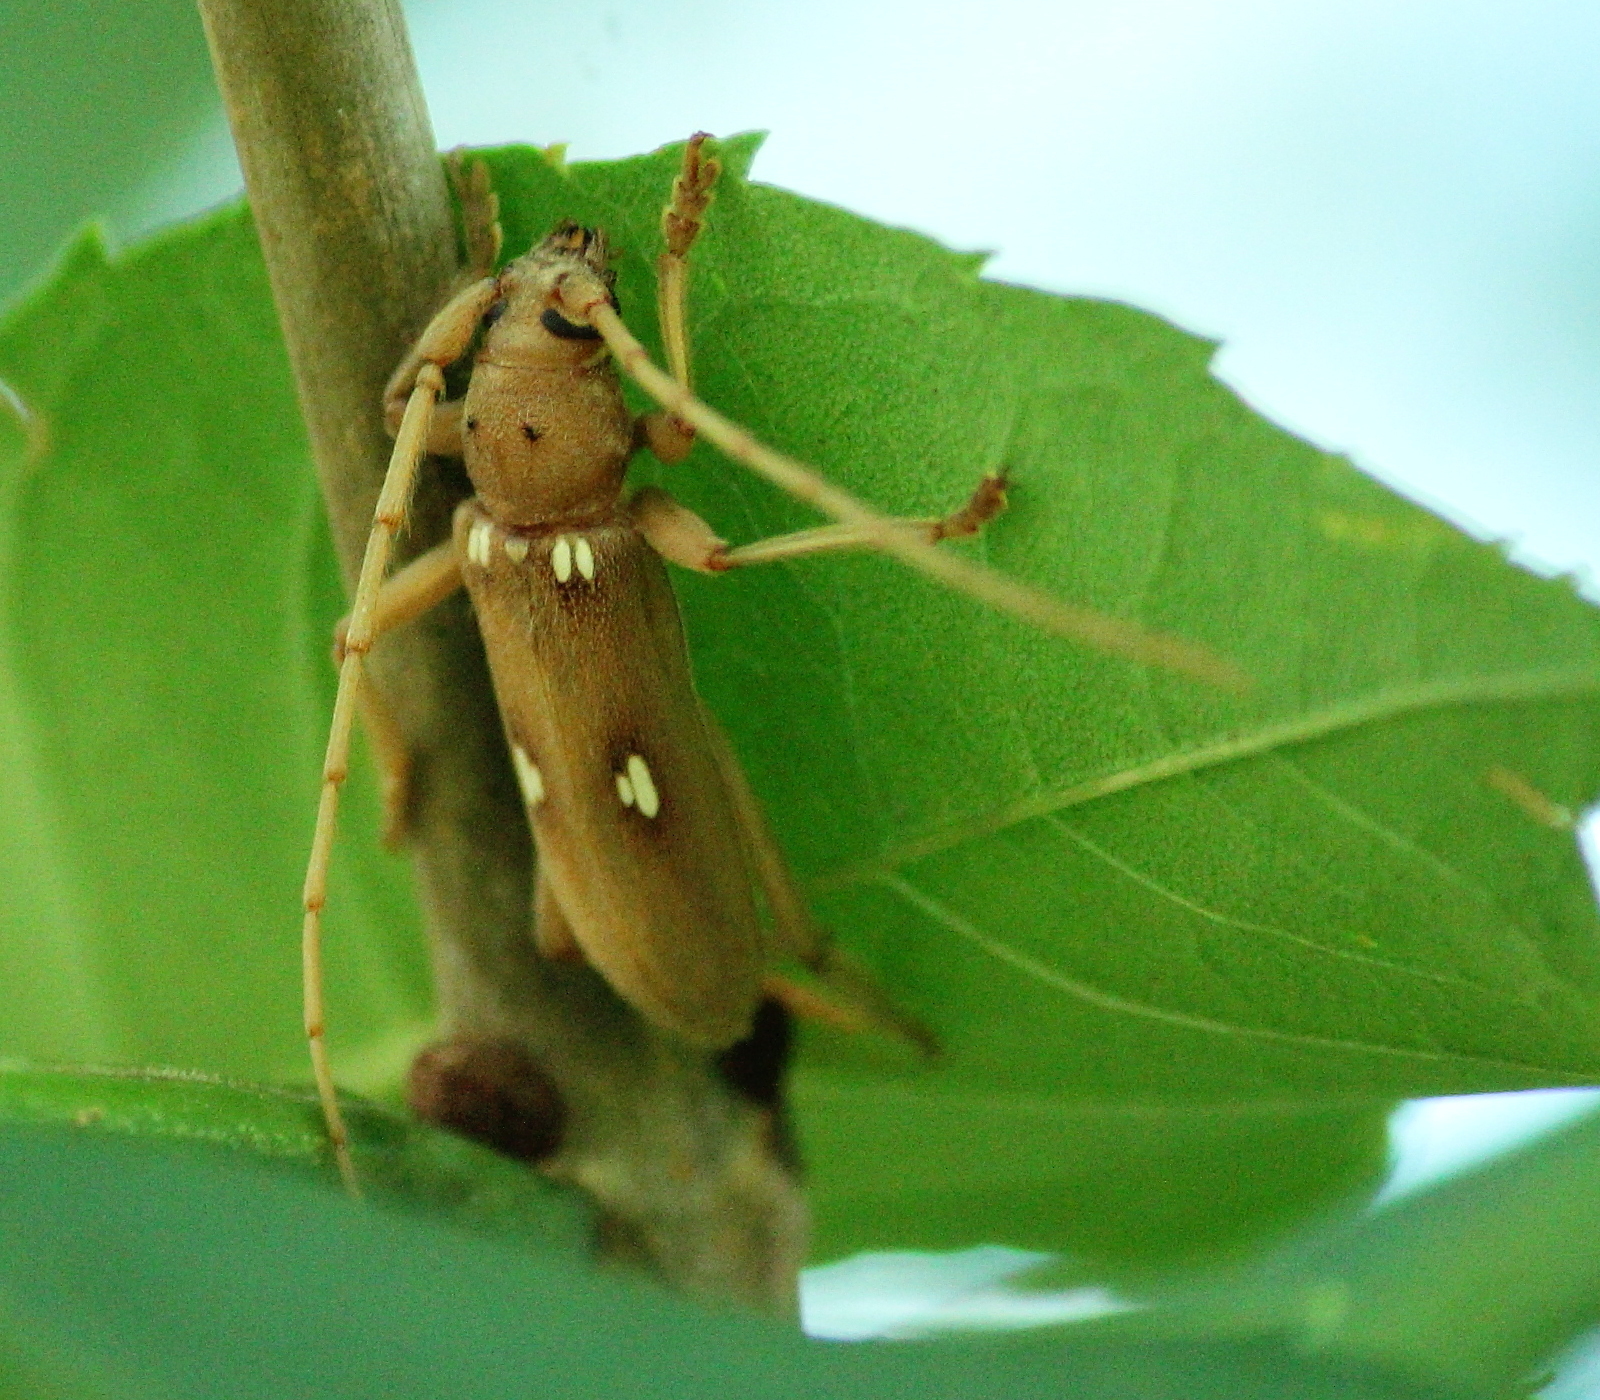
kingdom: Animalia
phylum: Arthropoda
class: Insecta
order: Coleoptera
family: Cerambycidae
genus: Eburia
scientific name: Eburia quadrigeminata
